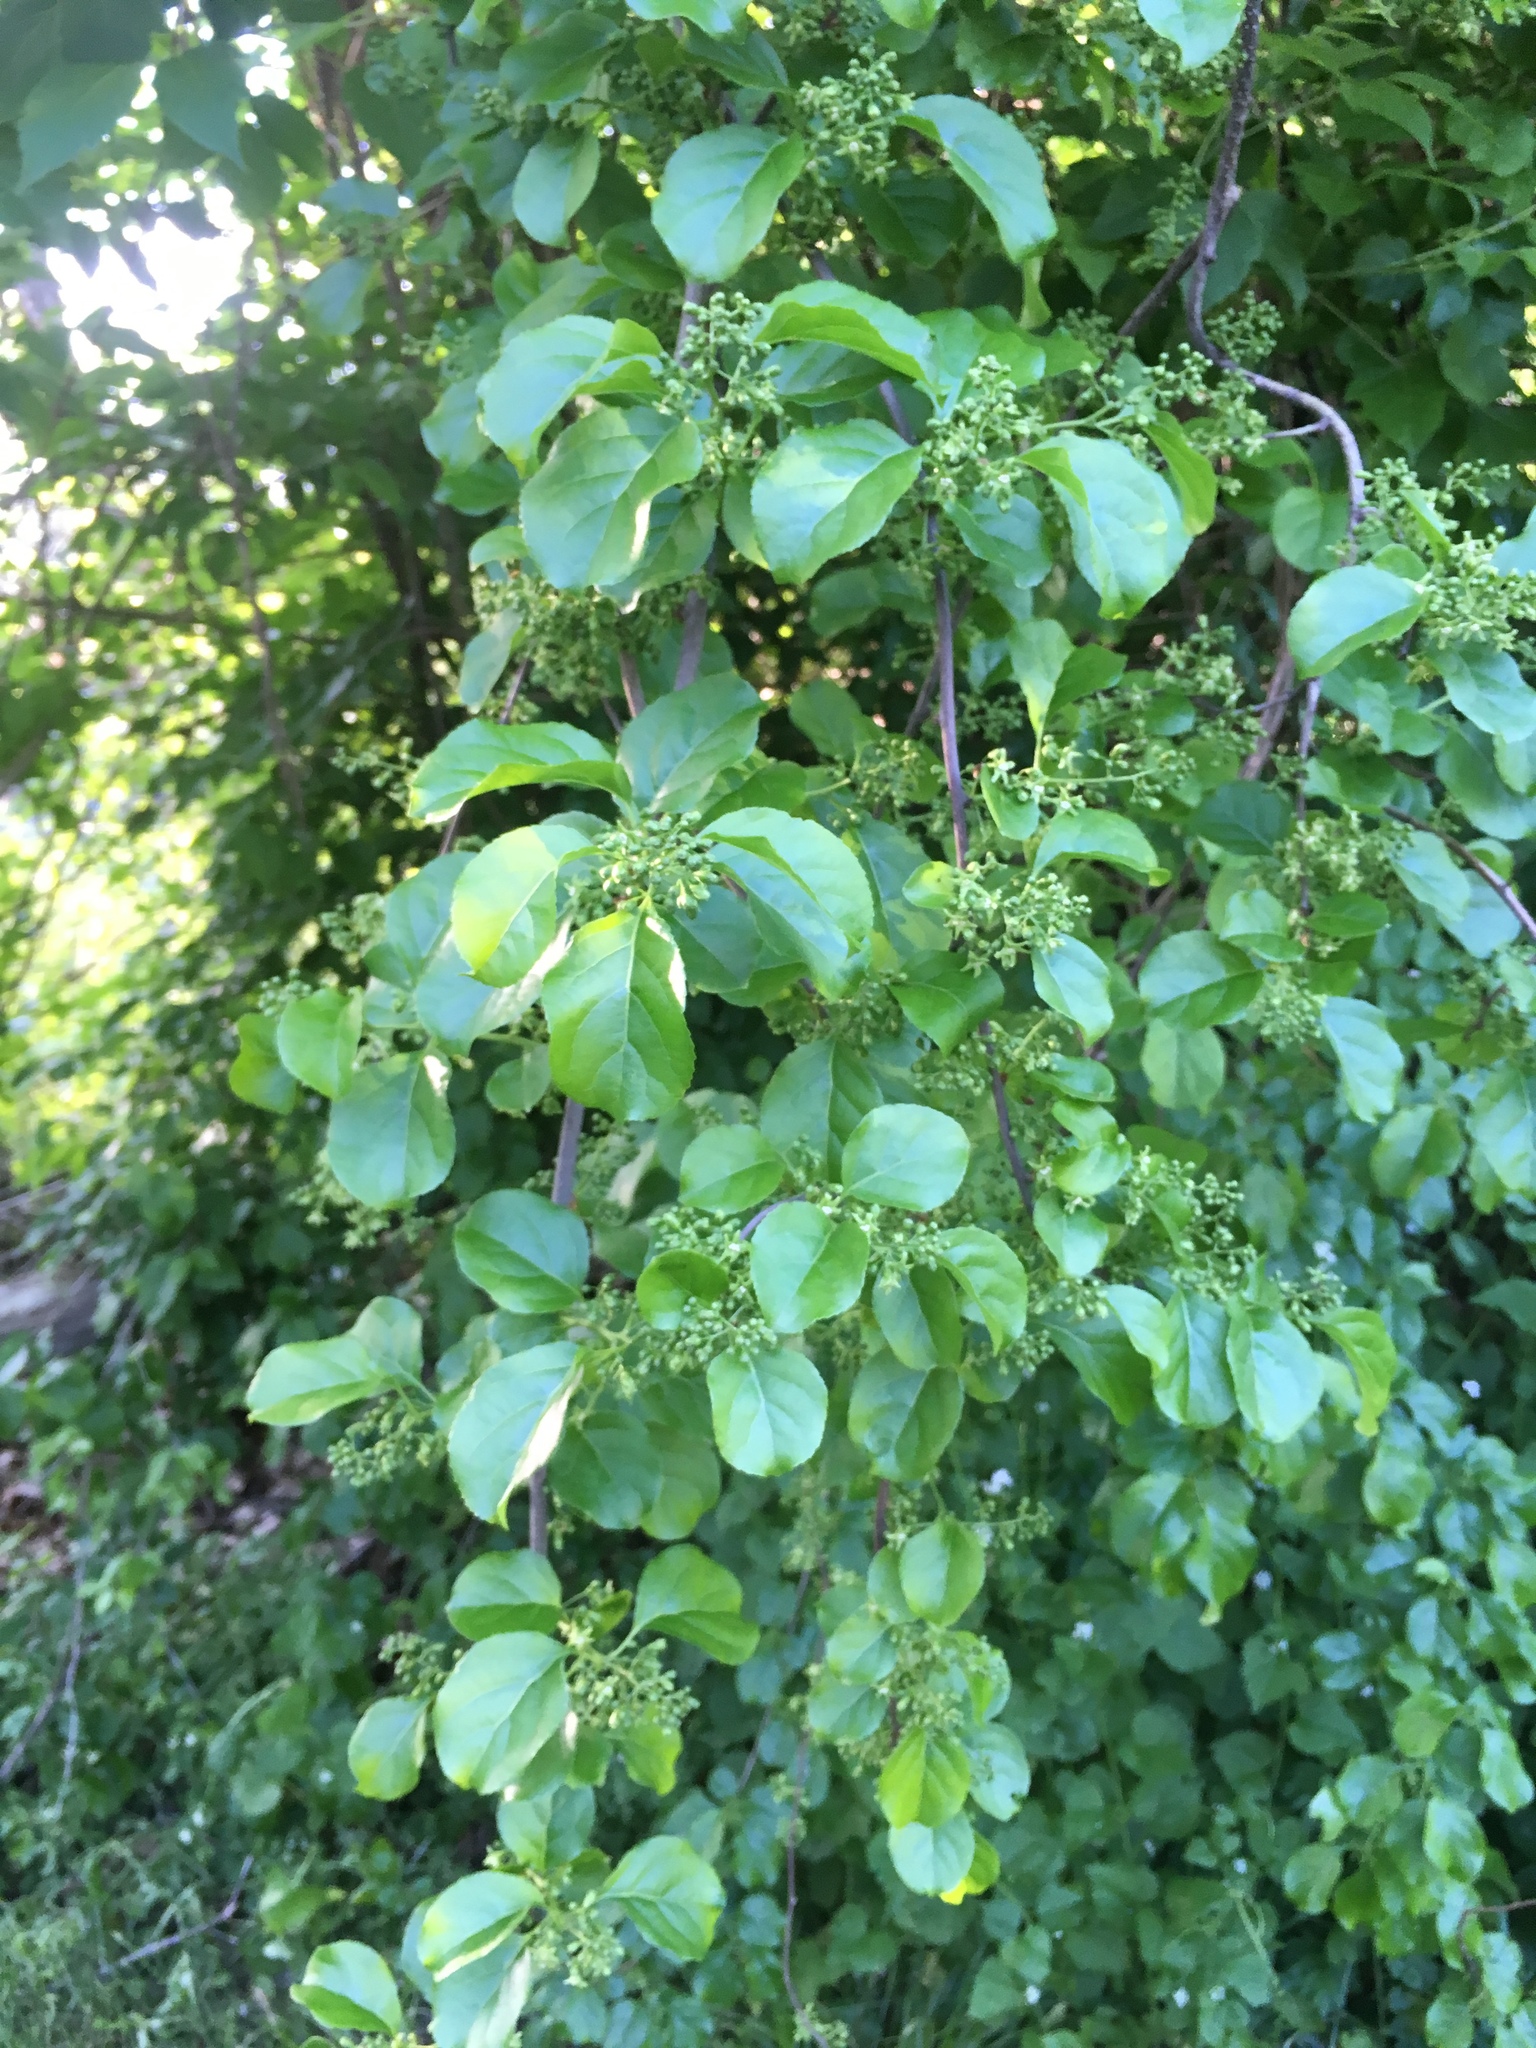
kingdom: Plantae
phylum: Tracheophyta
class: Magnoliopsida
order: Celastrales
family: Celastraceae
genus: Celastrus
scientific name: Celastrus orbiculatus
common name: Oriental bittersweet
